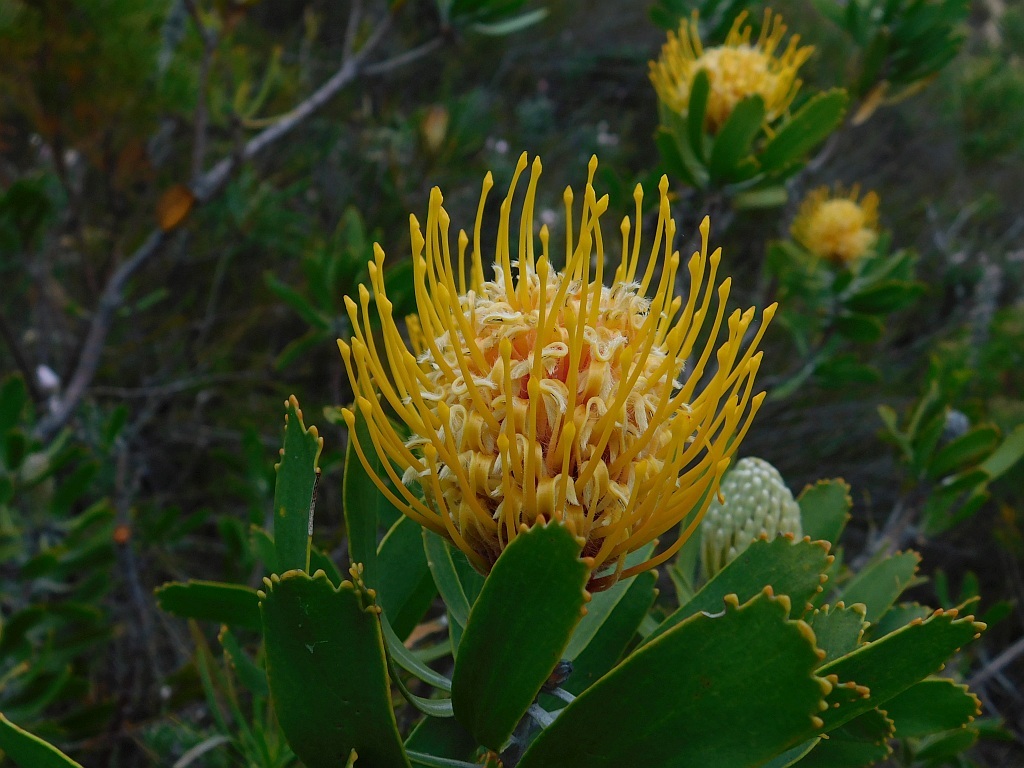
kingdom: Plantae
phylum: Tracheophyta
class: Magnoliopsida
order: Proteales
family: Proteaceae
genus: Leucospermum
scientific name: Leucospermum cuneiforme
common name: Common pincushion
